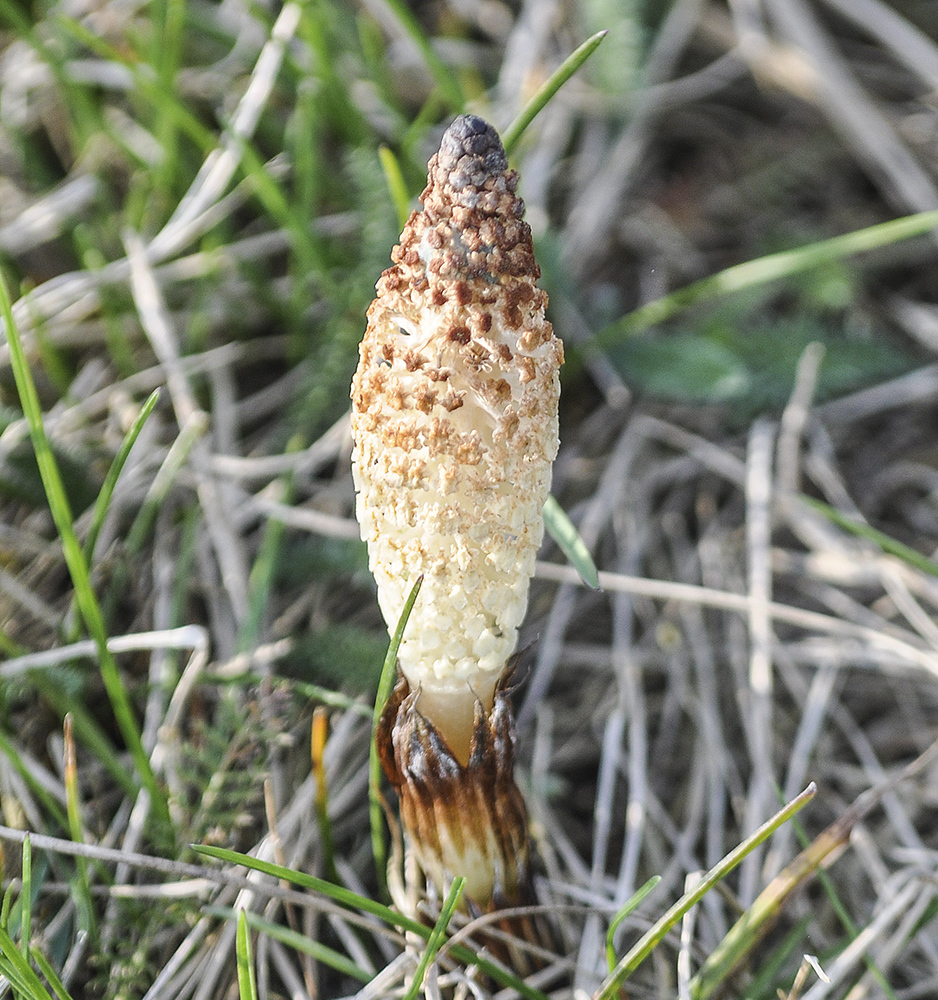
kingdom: Plantae
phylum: Tracheophyta
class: Polypodiopsida
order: Equisetales
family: Equisetaceae
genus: Equisetum
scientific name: Equisetum telmateia
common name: Great horsetail
